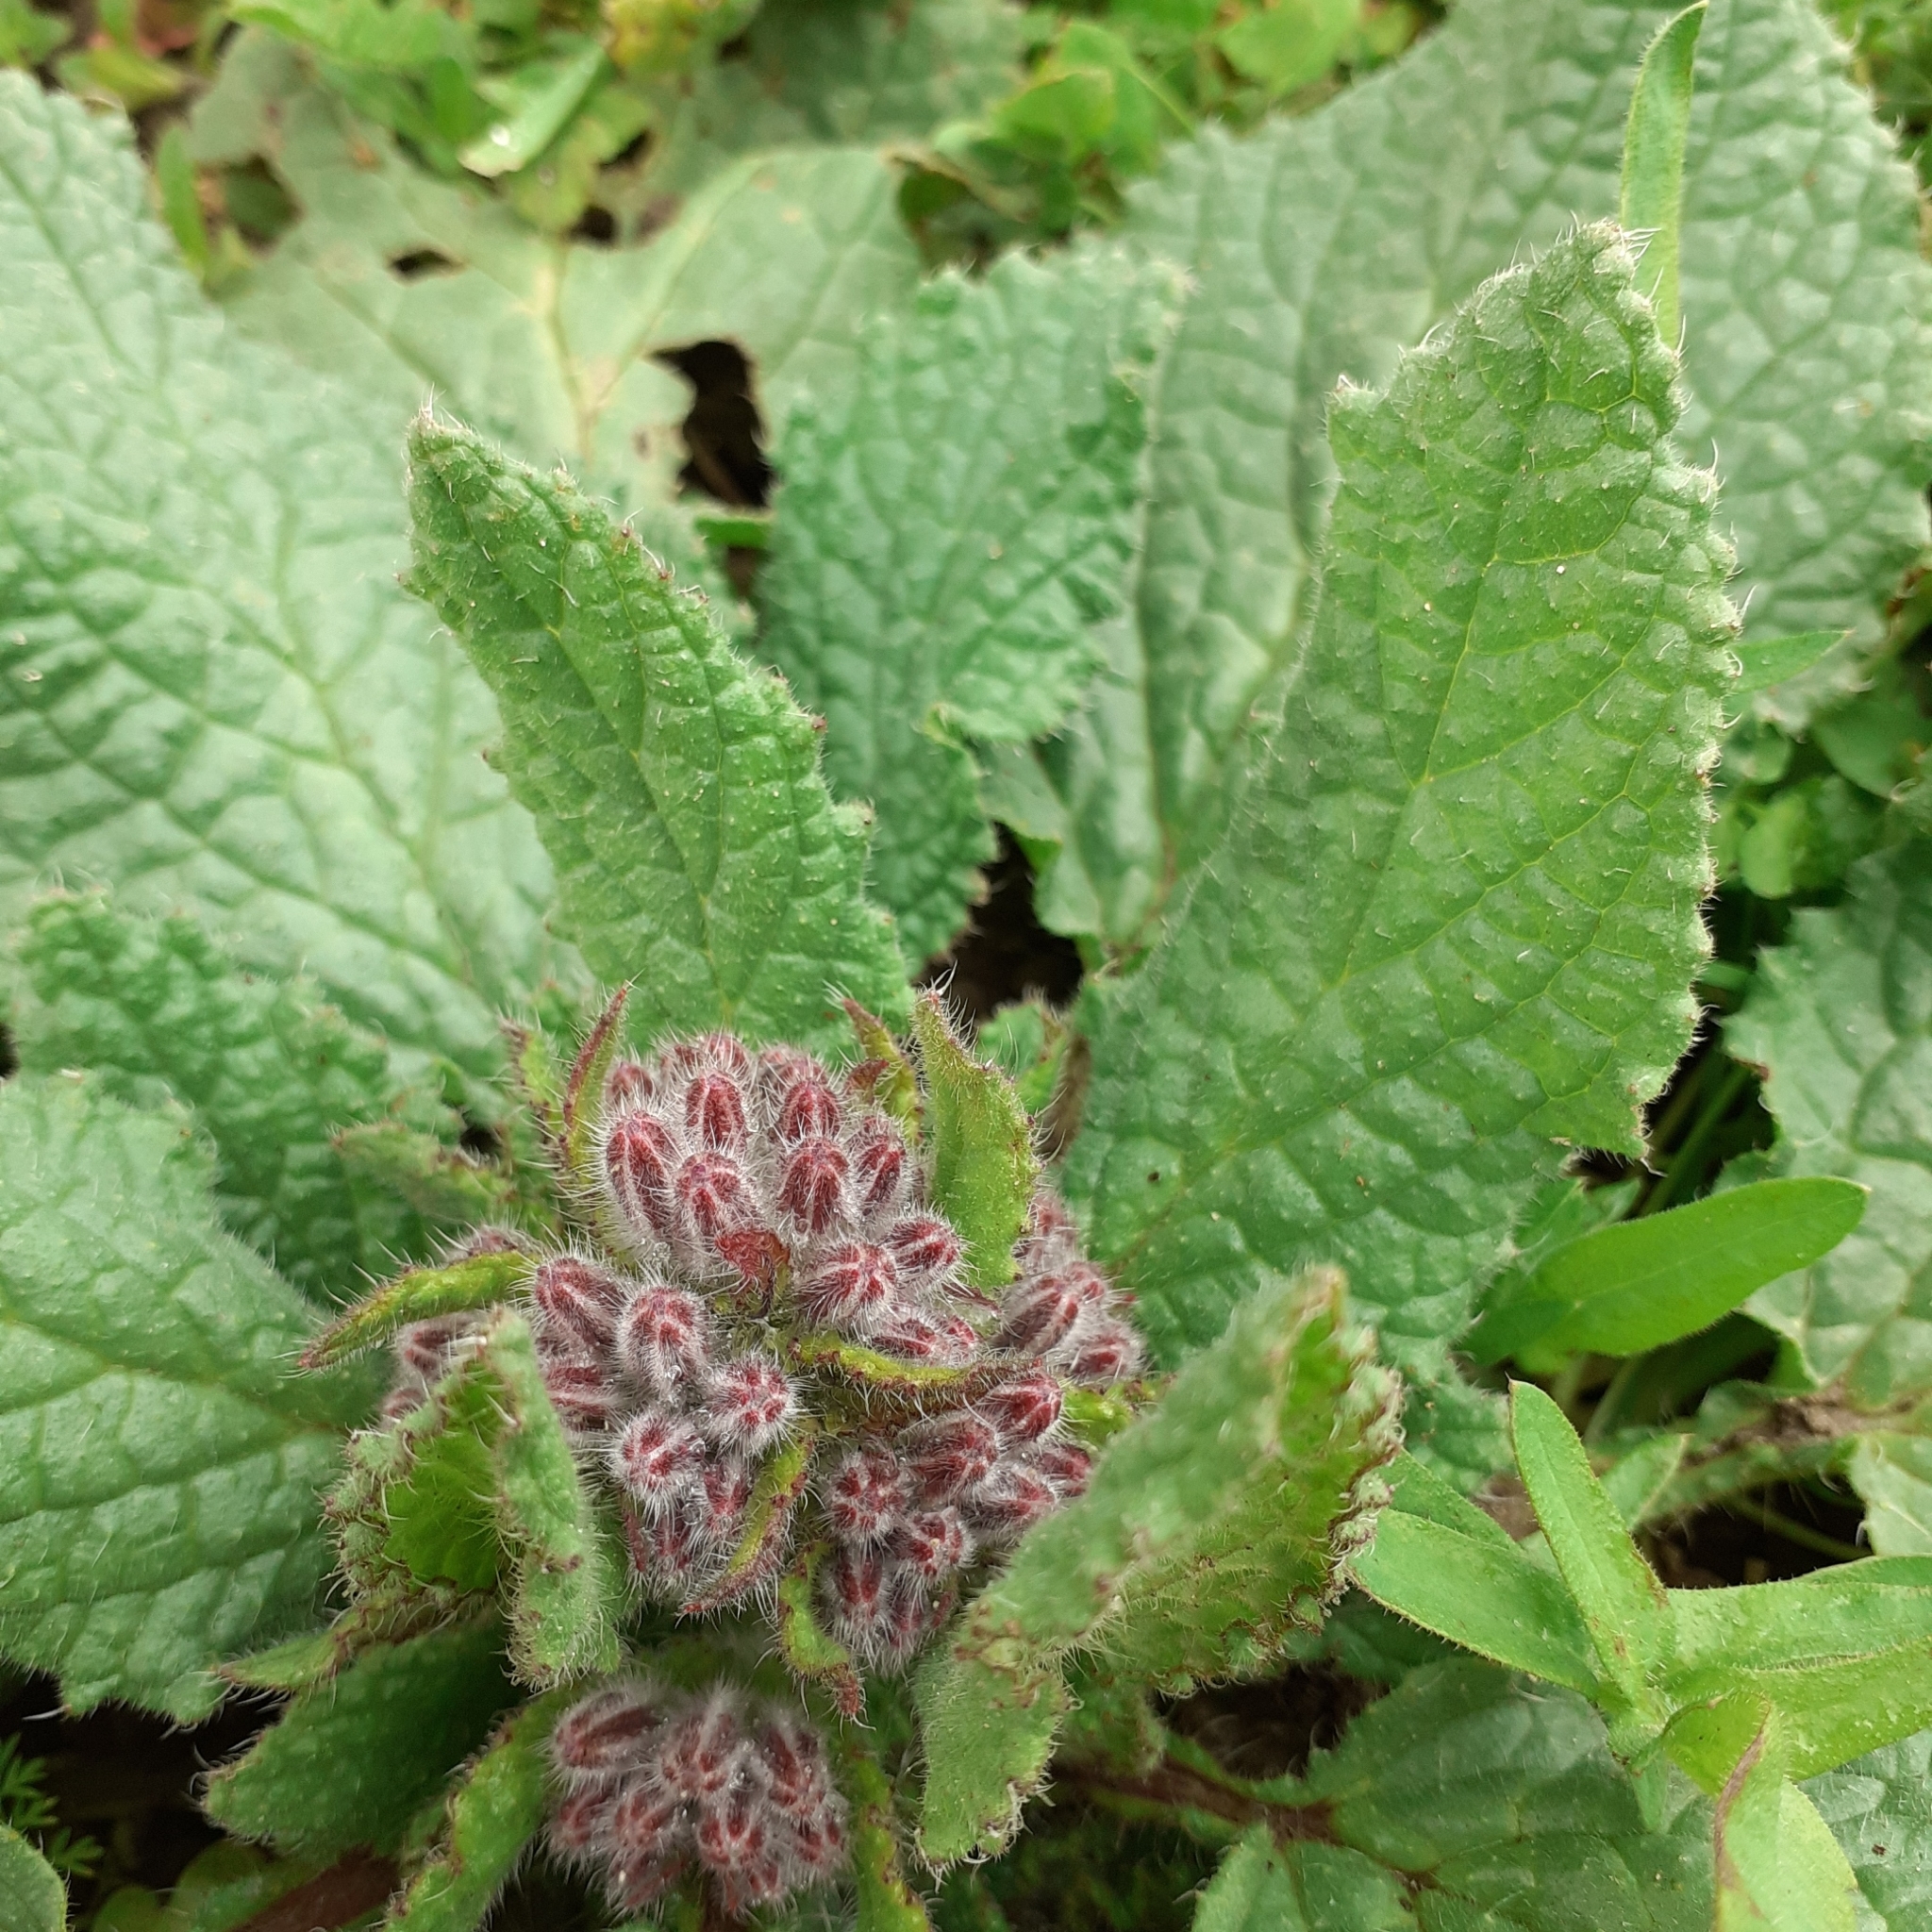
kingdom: Plantae
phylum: Tracheophyta
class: Magnoliopsida
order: Boraginales
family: Boraginaceae
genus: Borago
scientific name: Borago officinalis
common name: Borage
